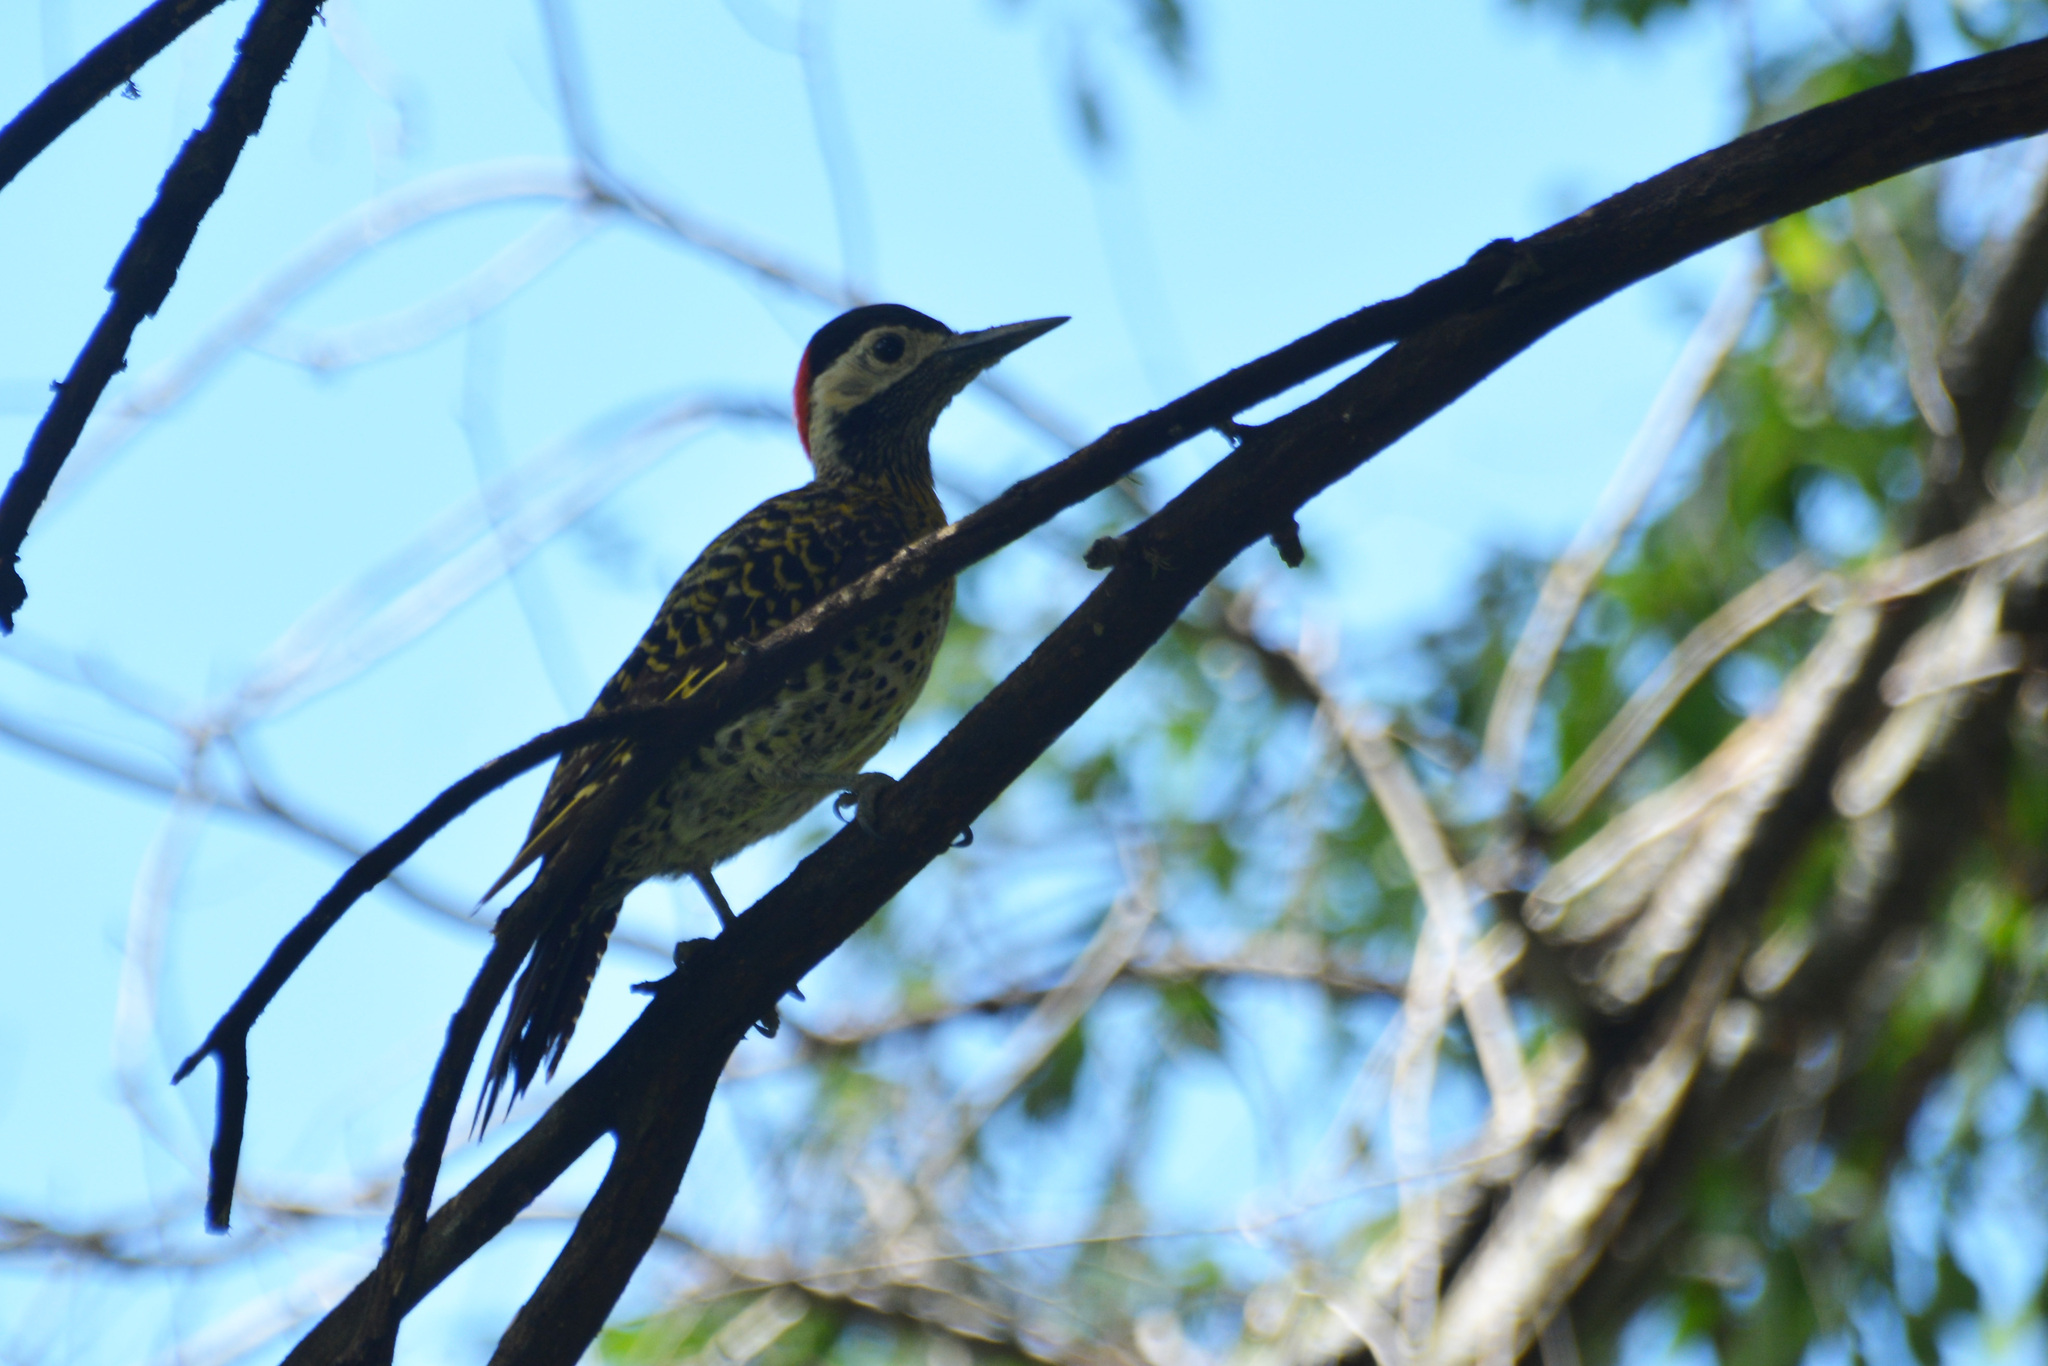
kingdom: Animalia
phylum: Chordata
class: Aves
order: Piciformes
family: Picidae
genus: Colaptes
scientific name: Colaptes melanochloros
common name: Green-barred woodpecker
